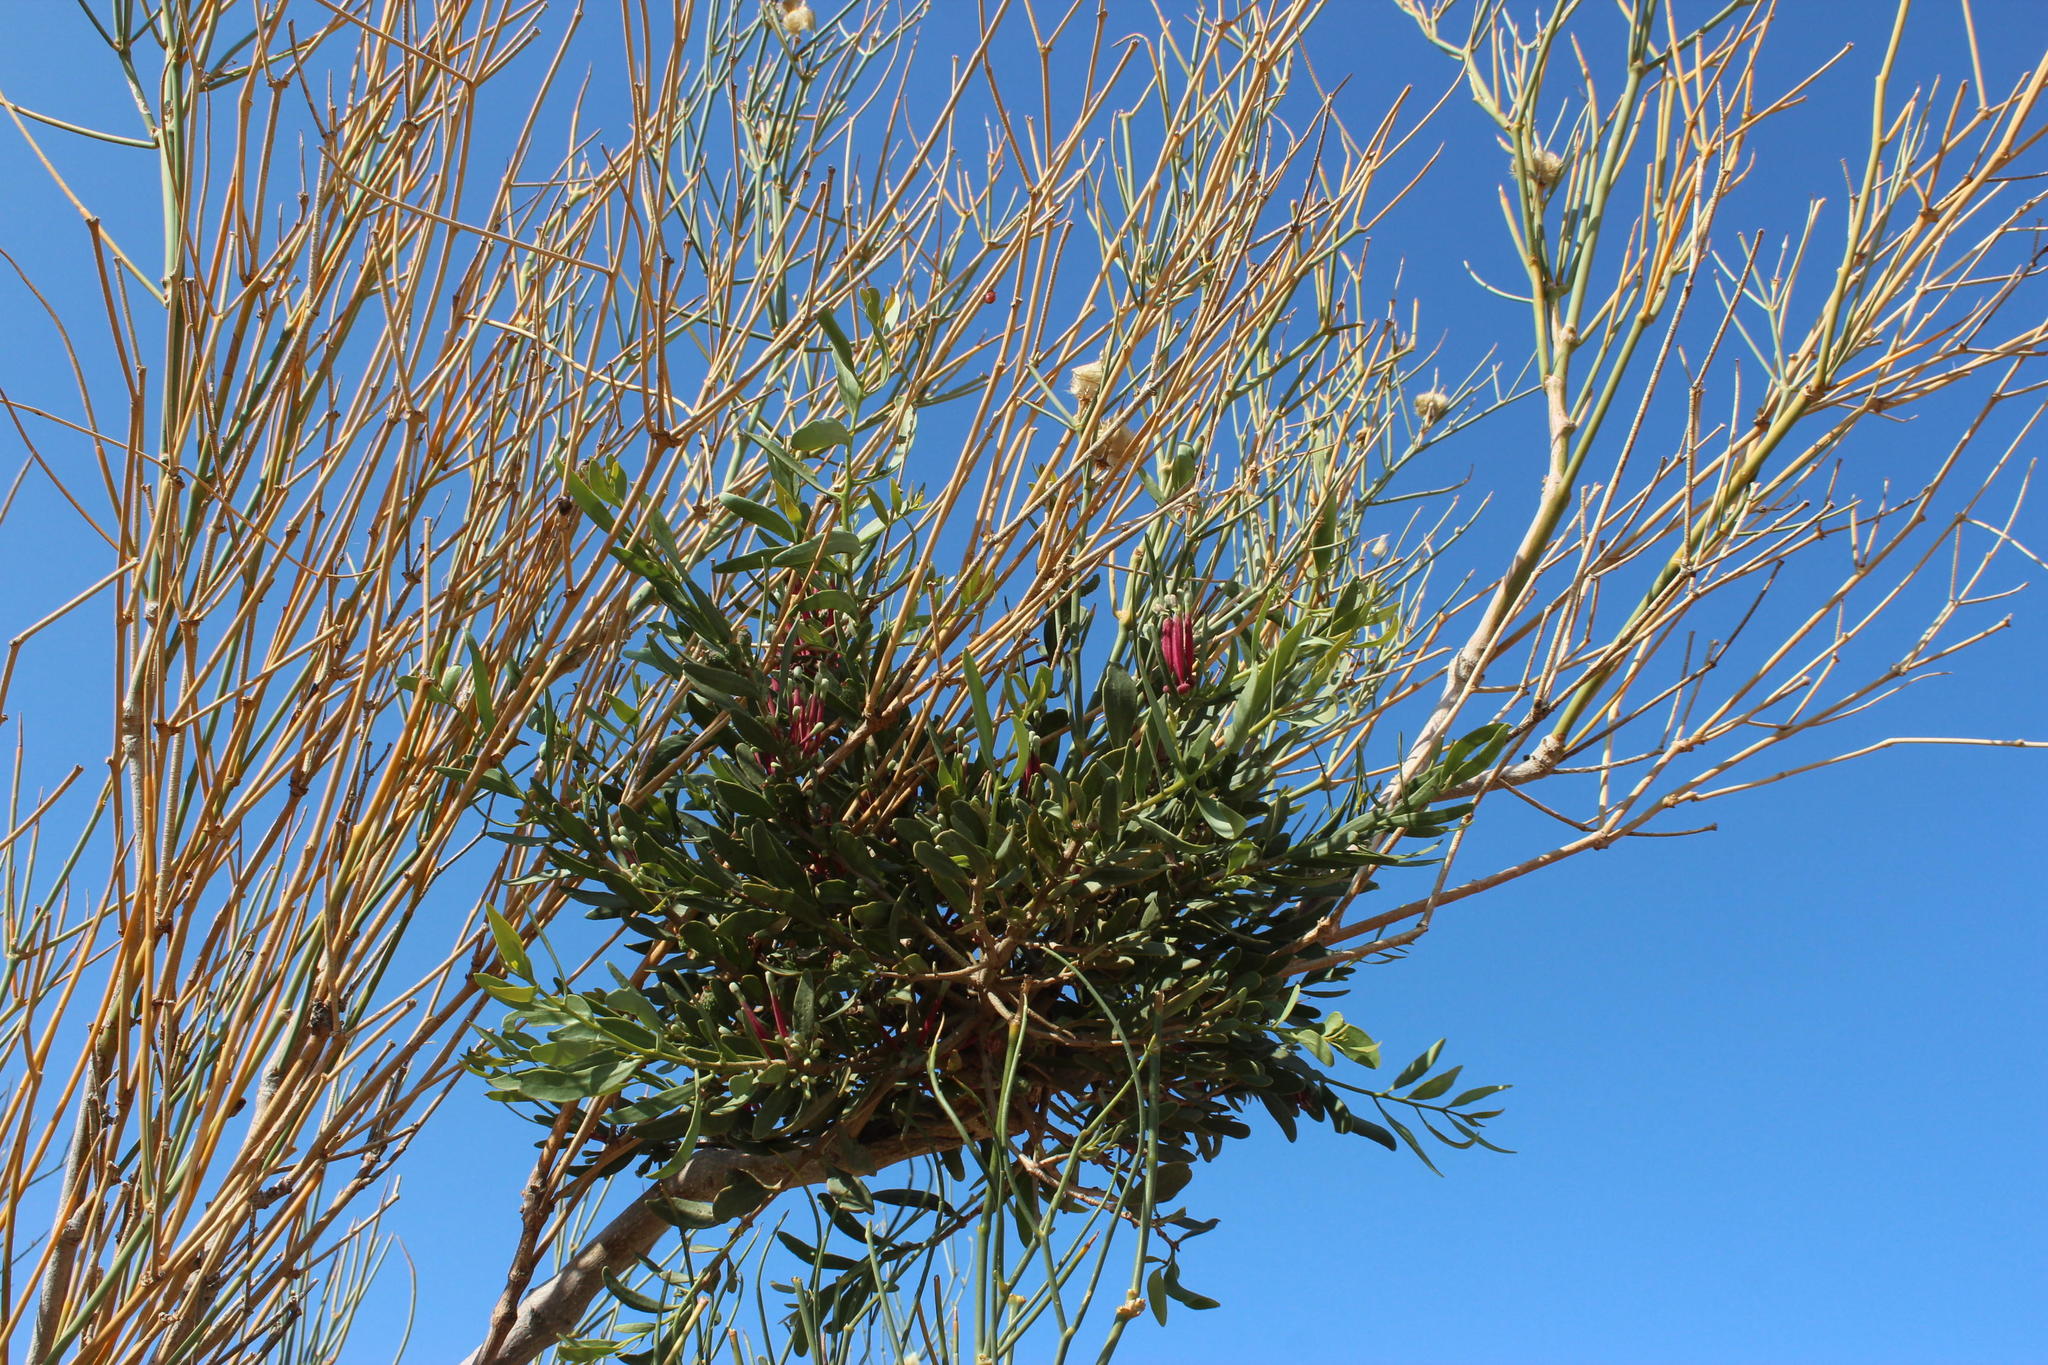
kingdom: Plantae
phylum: Tracheophyta
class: Magnoliopsida
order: Santalales
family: Loranthaceae
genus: Tapinanthus
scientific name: Tapinanthus oleifolius
